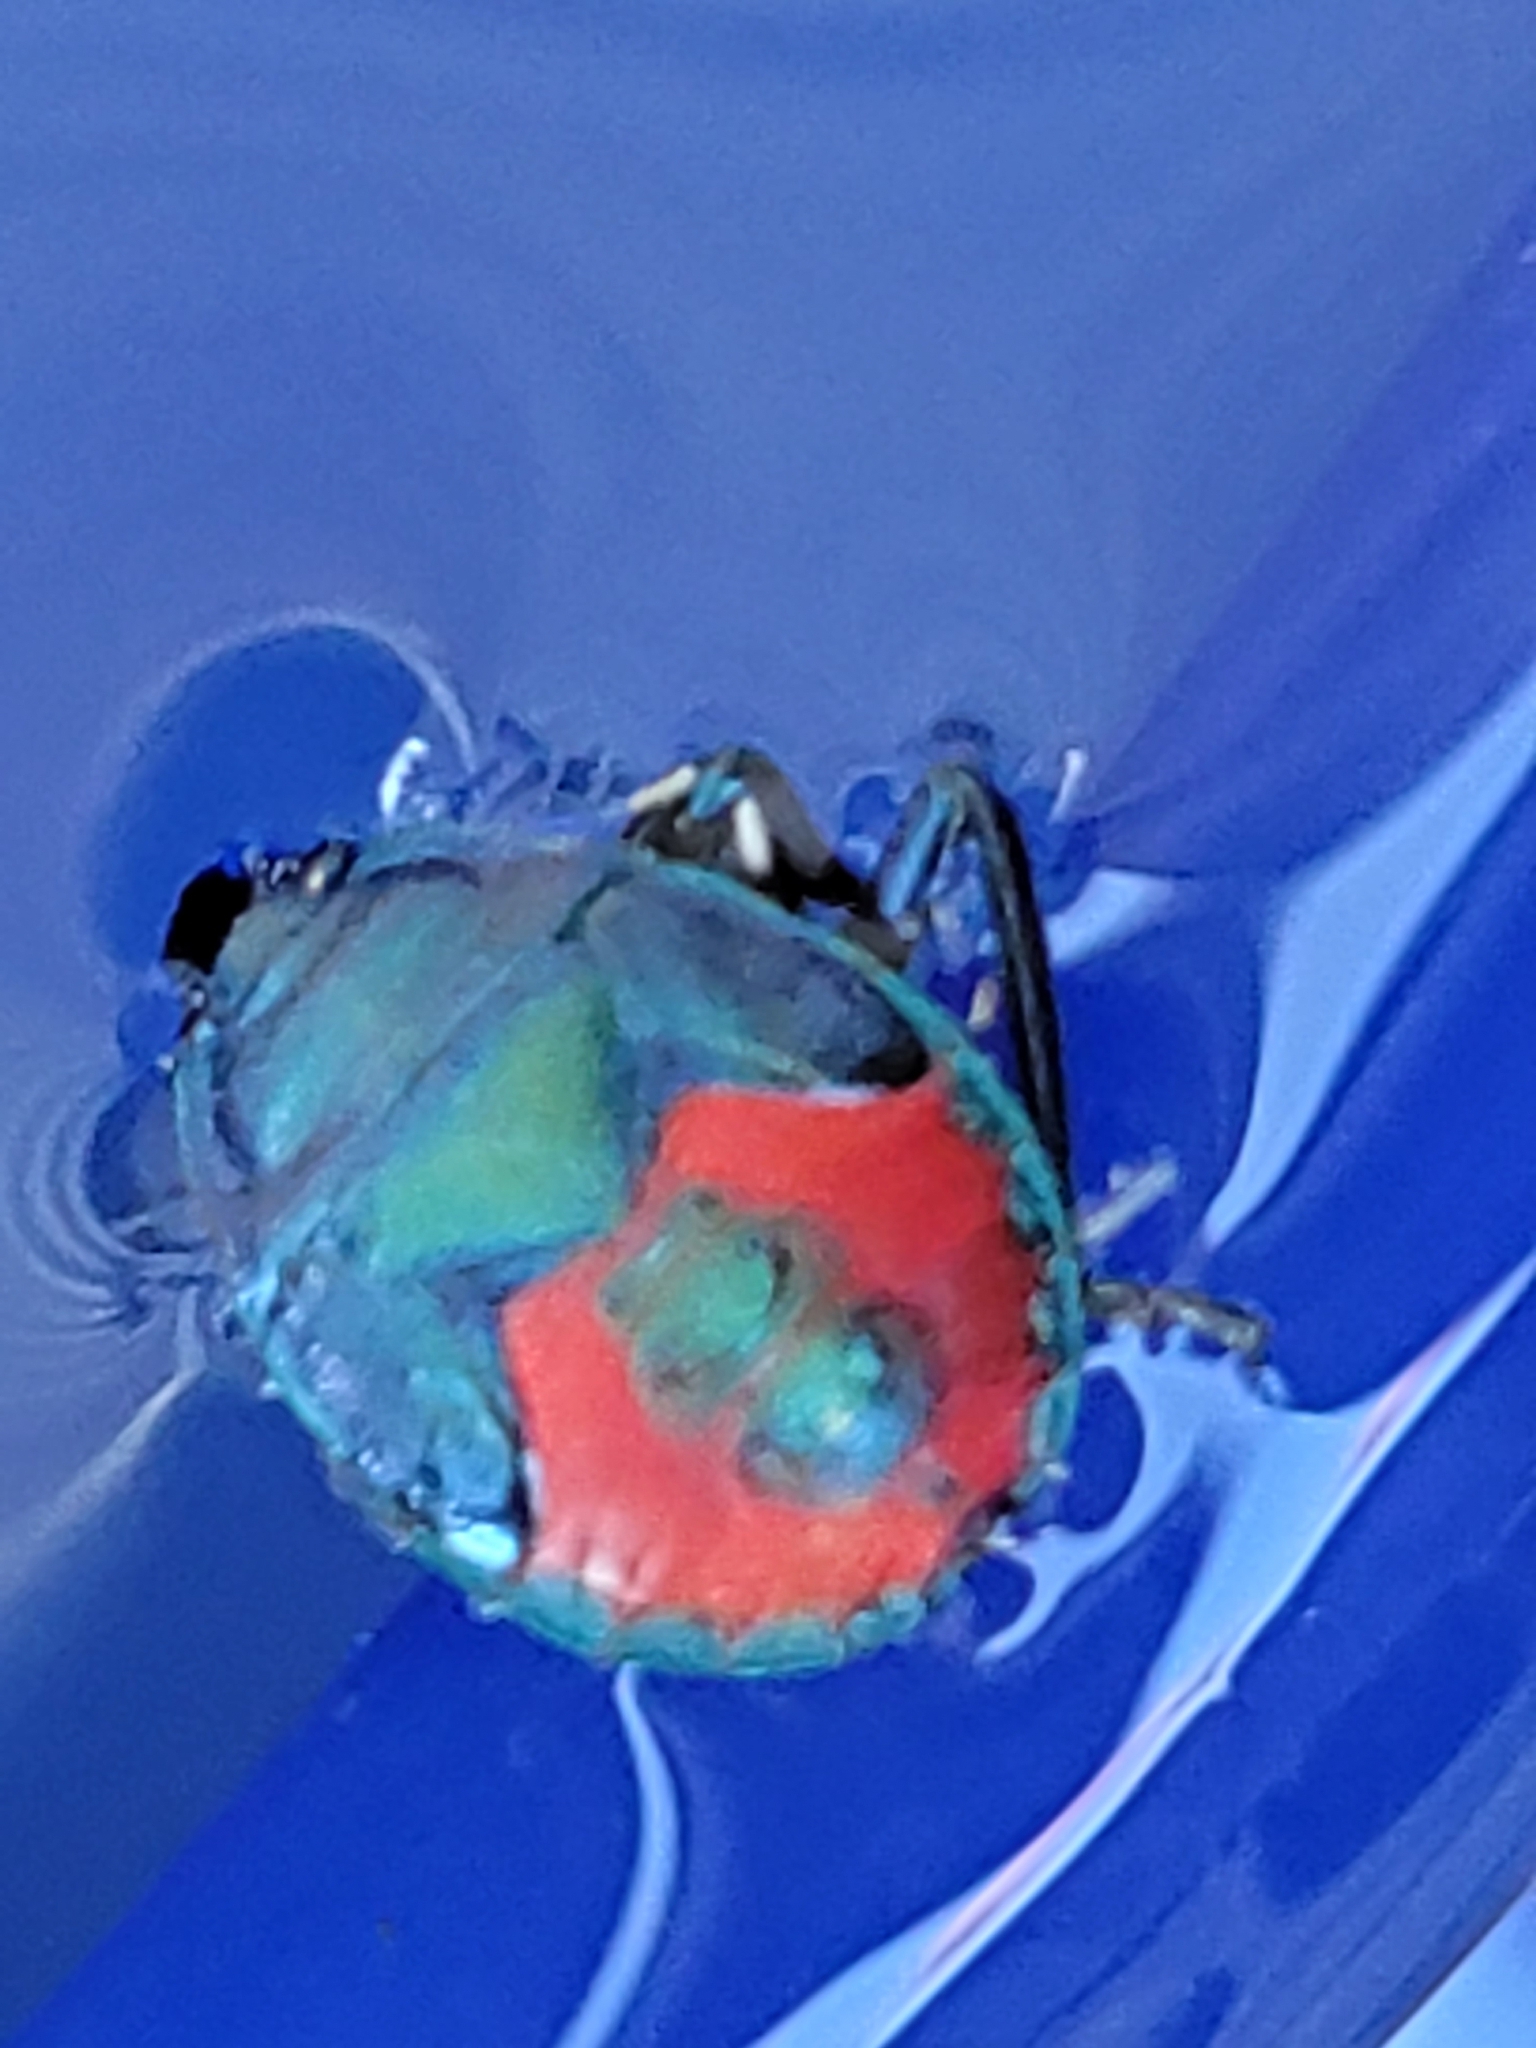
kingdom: Animalia
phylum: Arthropoda
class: Insecta
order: Hemiptera
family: Pentatomidae
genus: Euthyrhynchus
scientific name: Euthyrhynchus floridanus
